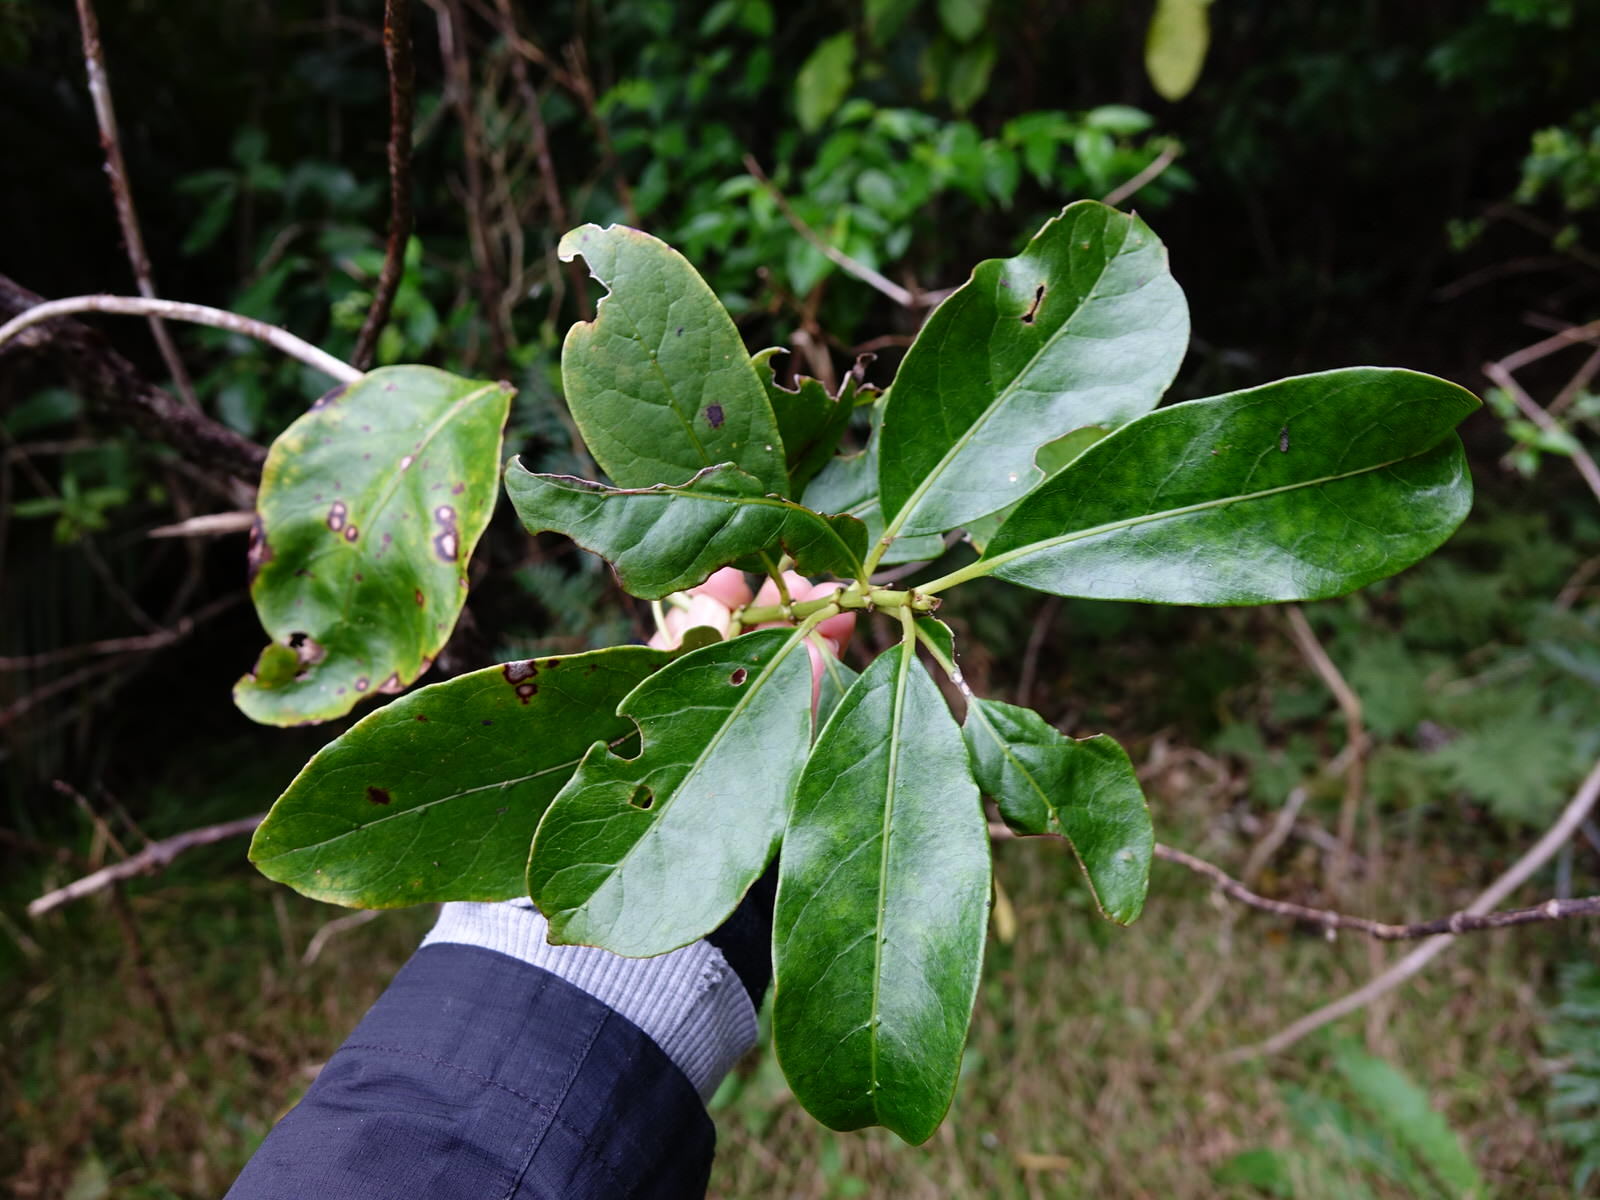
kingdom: Plantae
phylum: Tracheophyta
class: Magnoliopsida
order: Gentianales
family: Rubiaceae
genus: Coprosma
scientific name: Coprosma autumnalis
